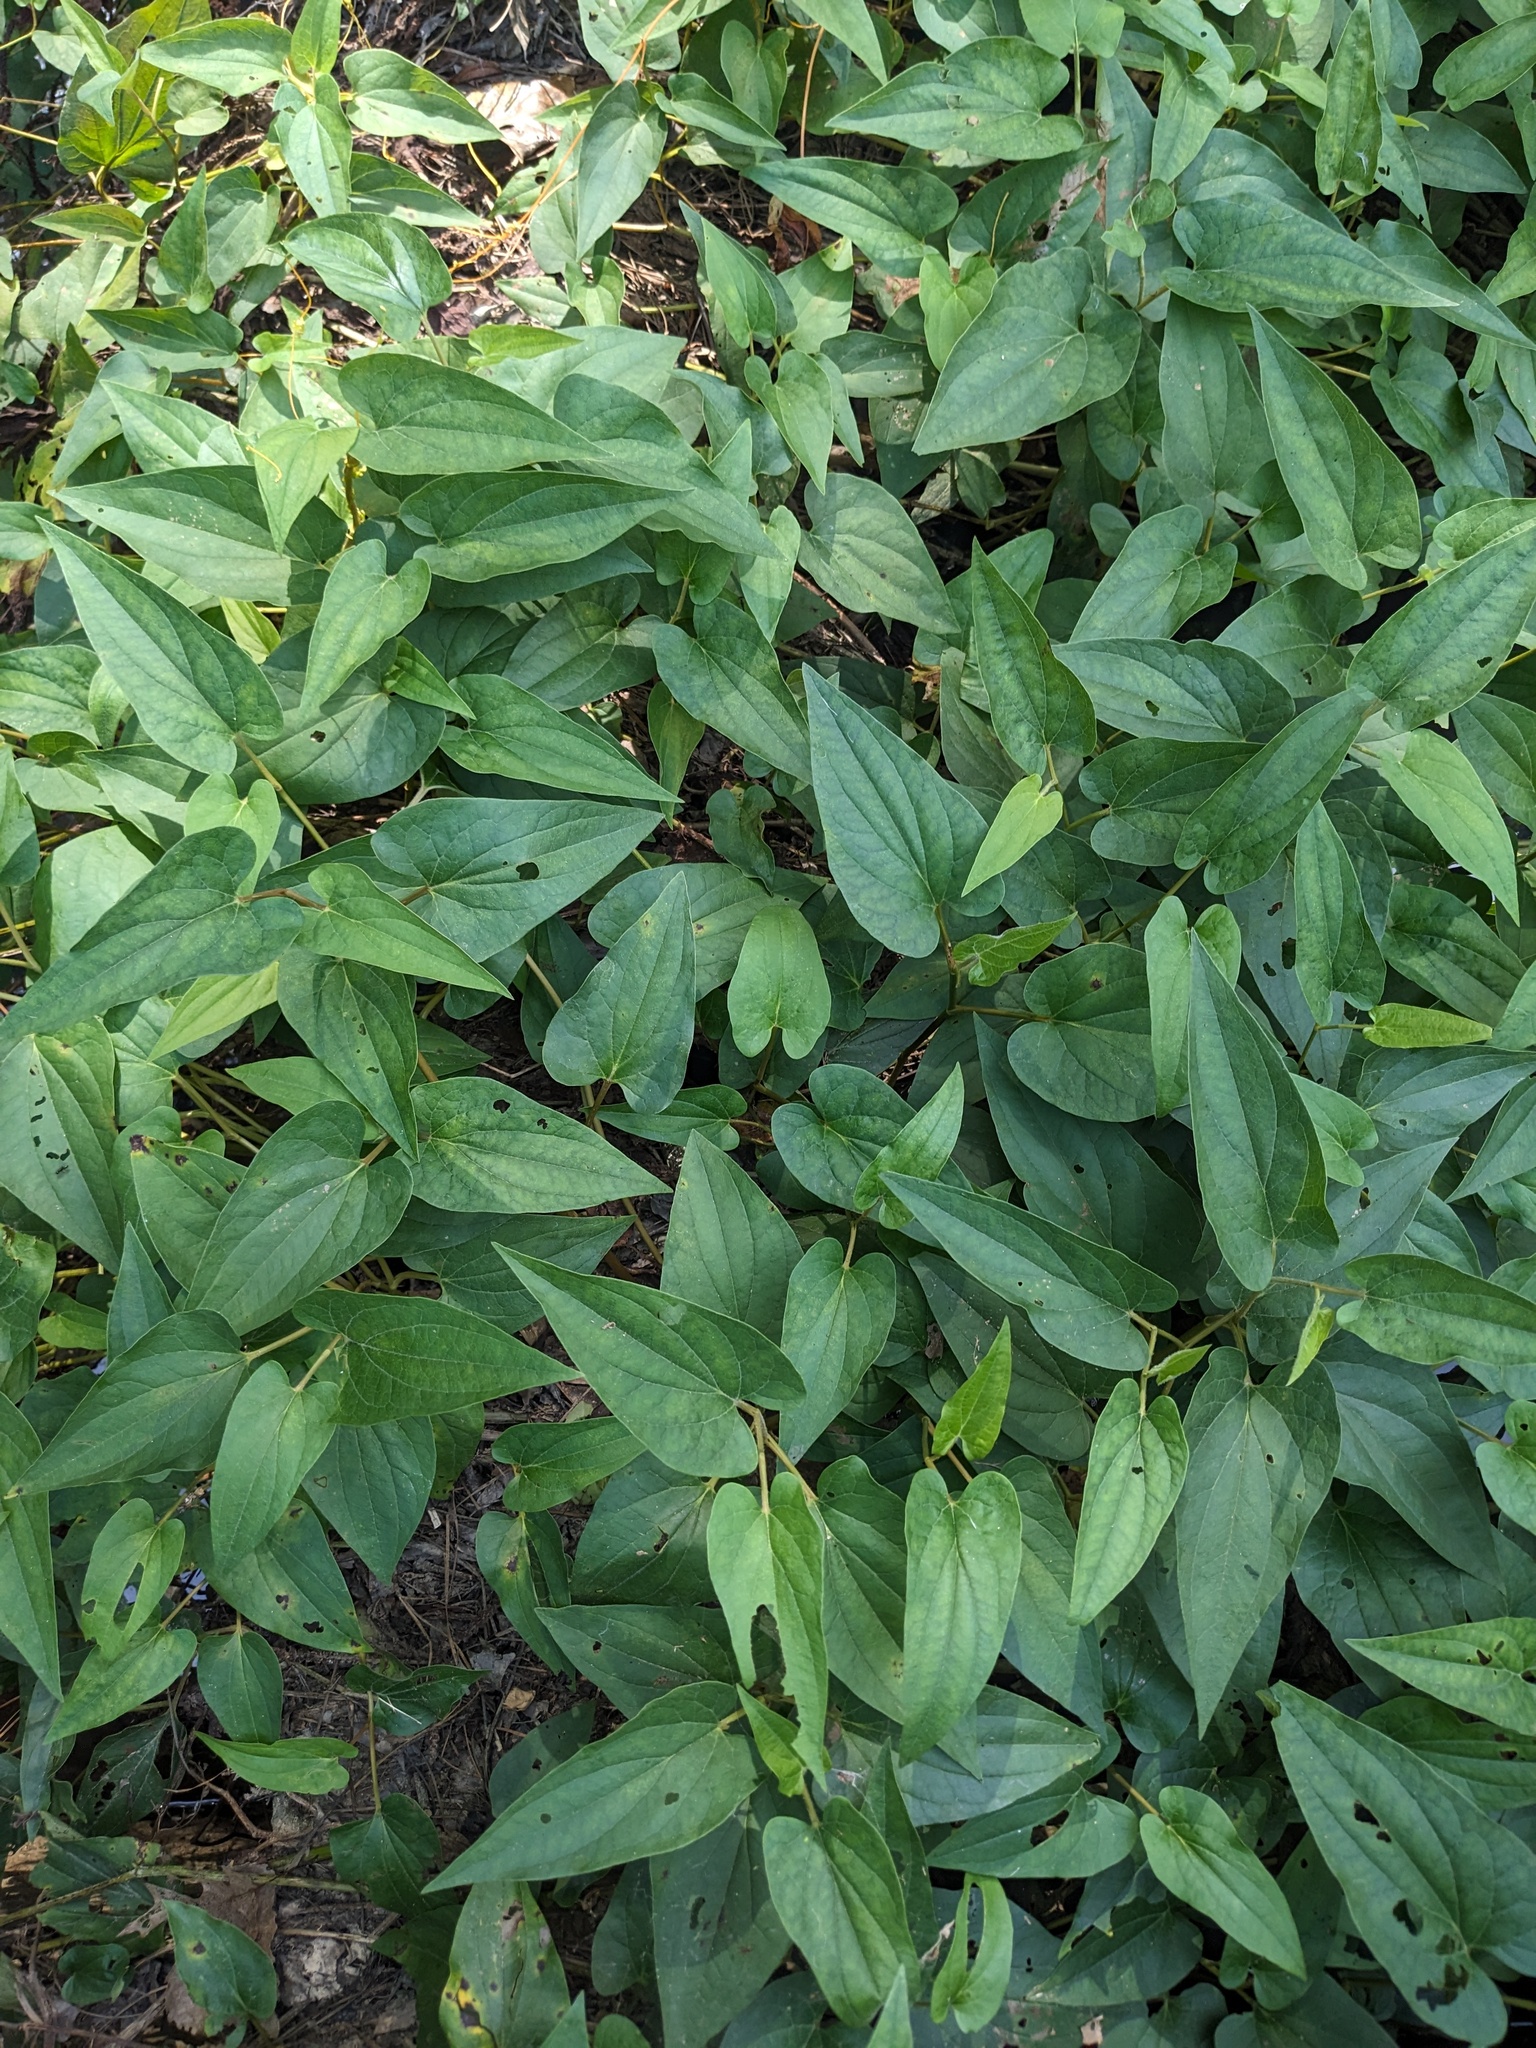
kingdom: Plantae
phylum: Tracheophyta
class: Magnoliopsida
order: Piperales
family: Saururaceae
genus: Saururus
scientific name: Saururus cernuus
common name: Lizard's-tail
